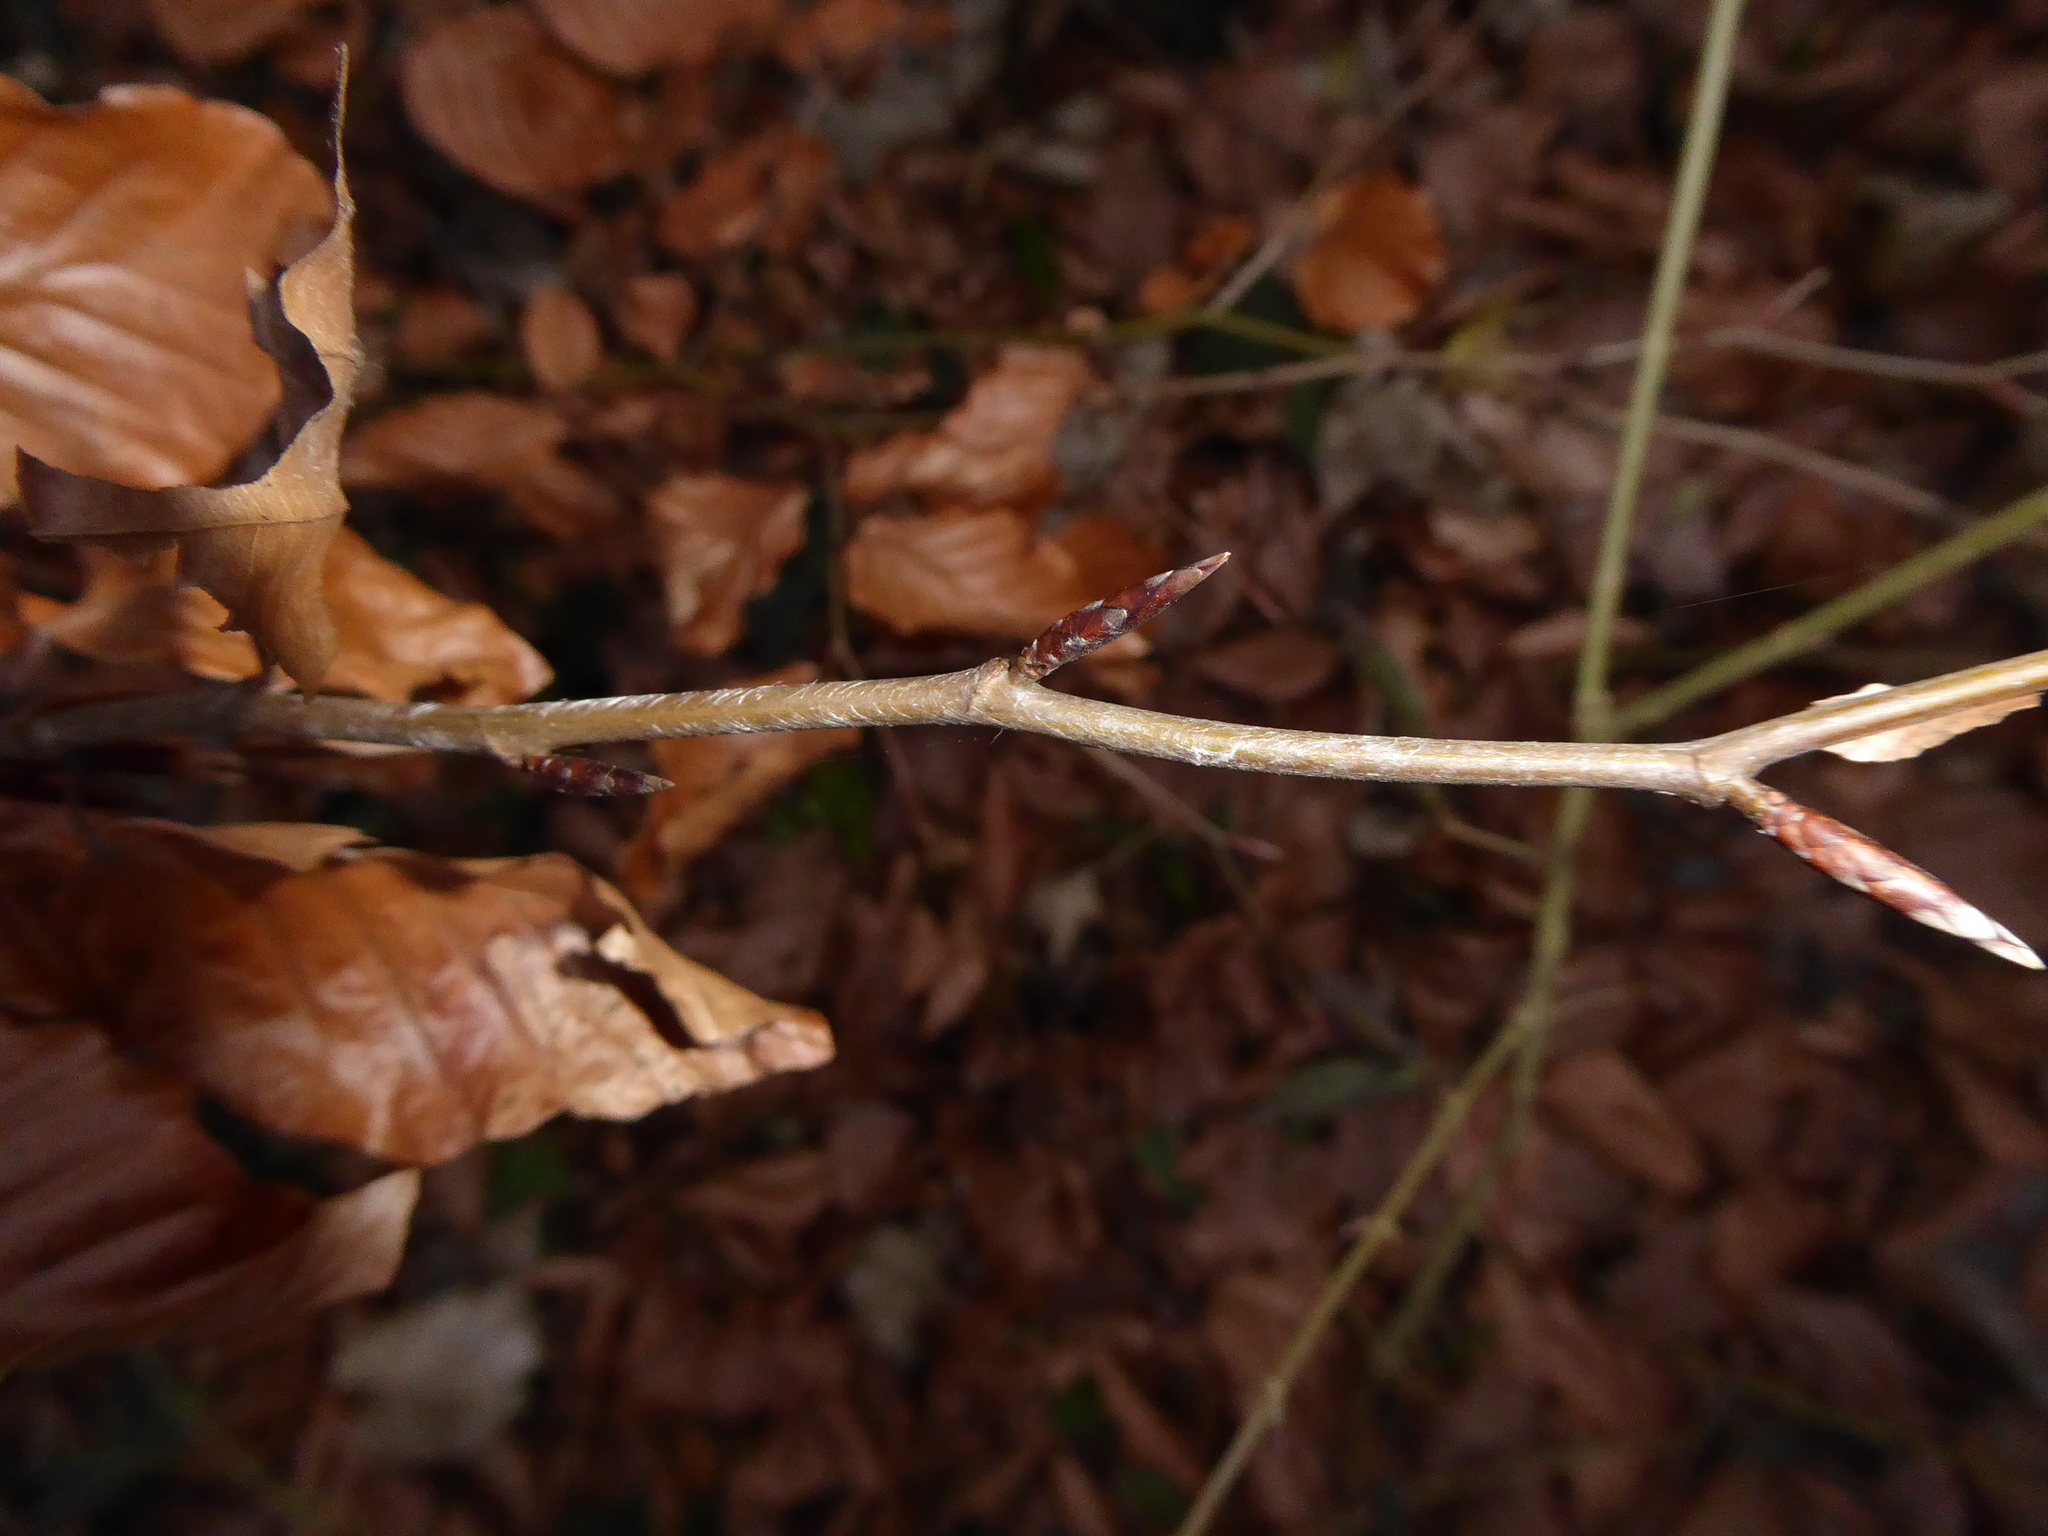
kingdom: Plantae
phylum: Tracheophyta
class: Magnoliopsida
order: Fagales
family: Fagaceae
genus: Fagus
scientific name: Fagus sylvatica
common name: Beech
